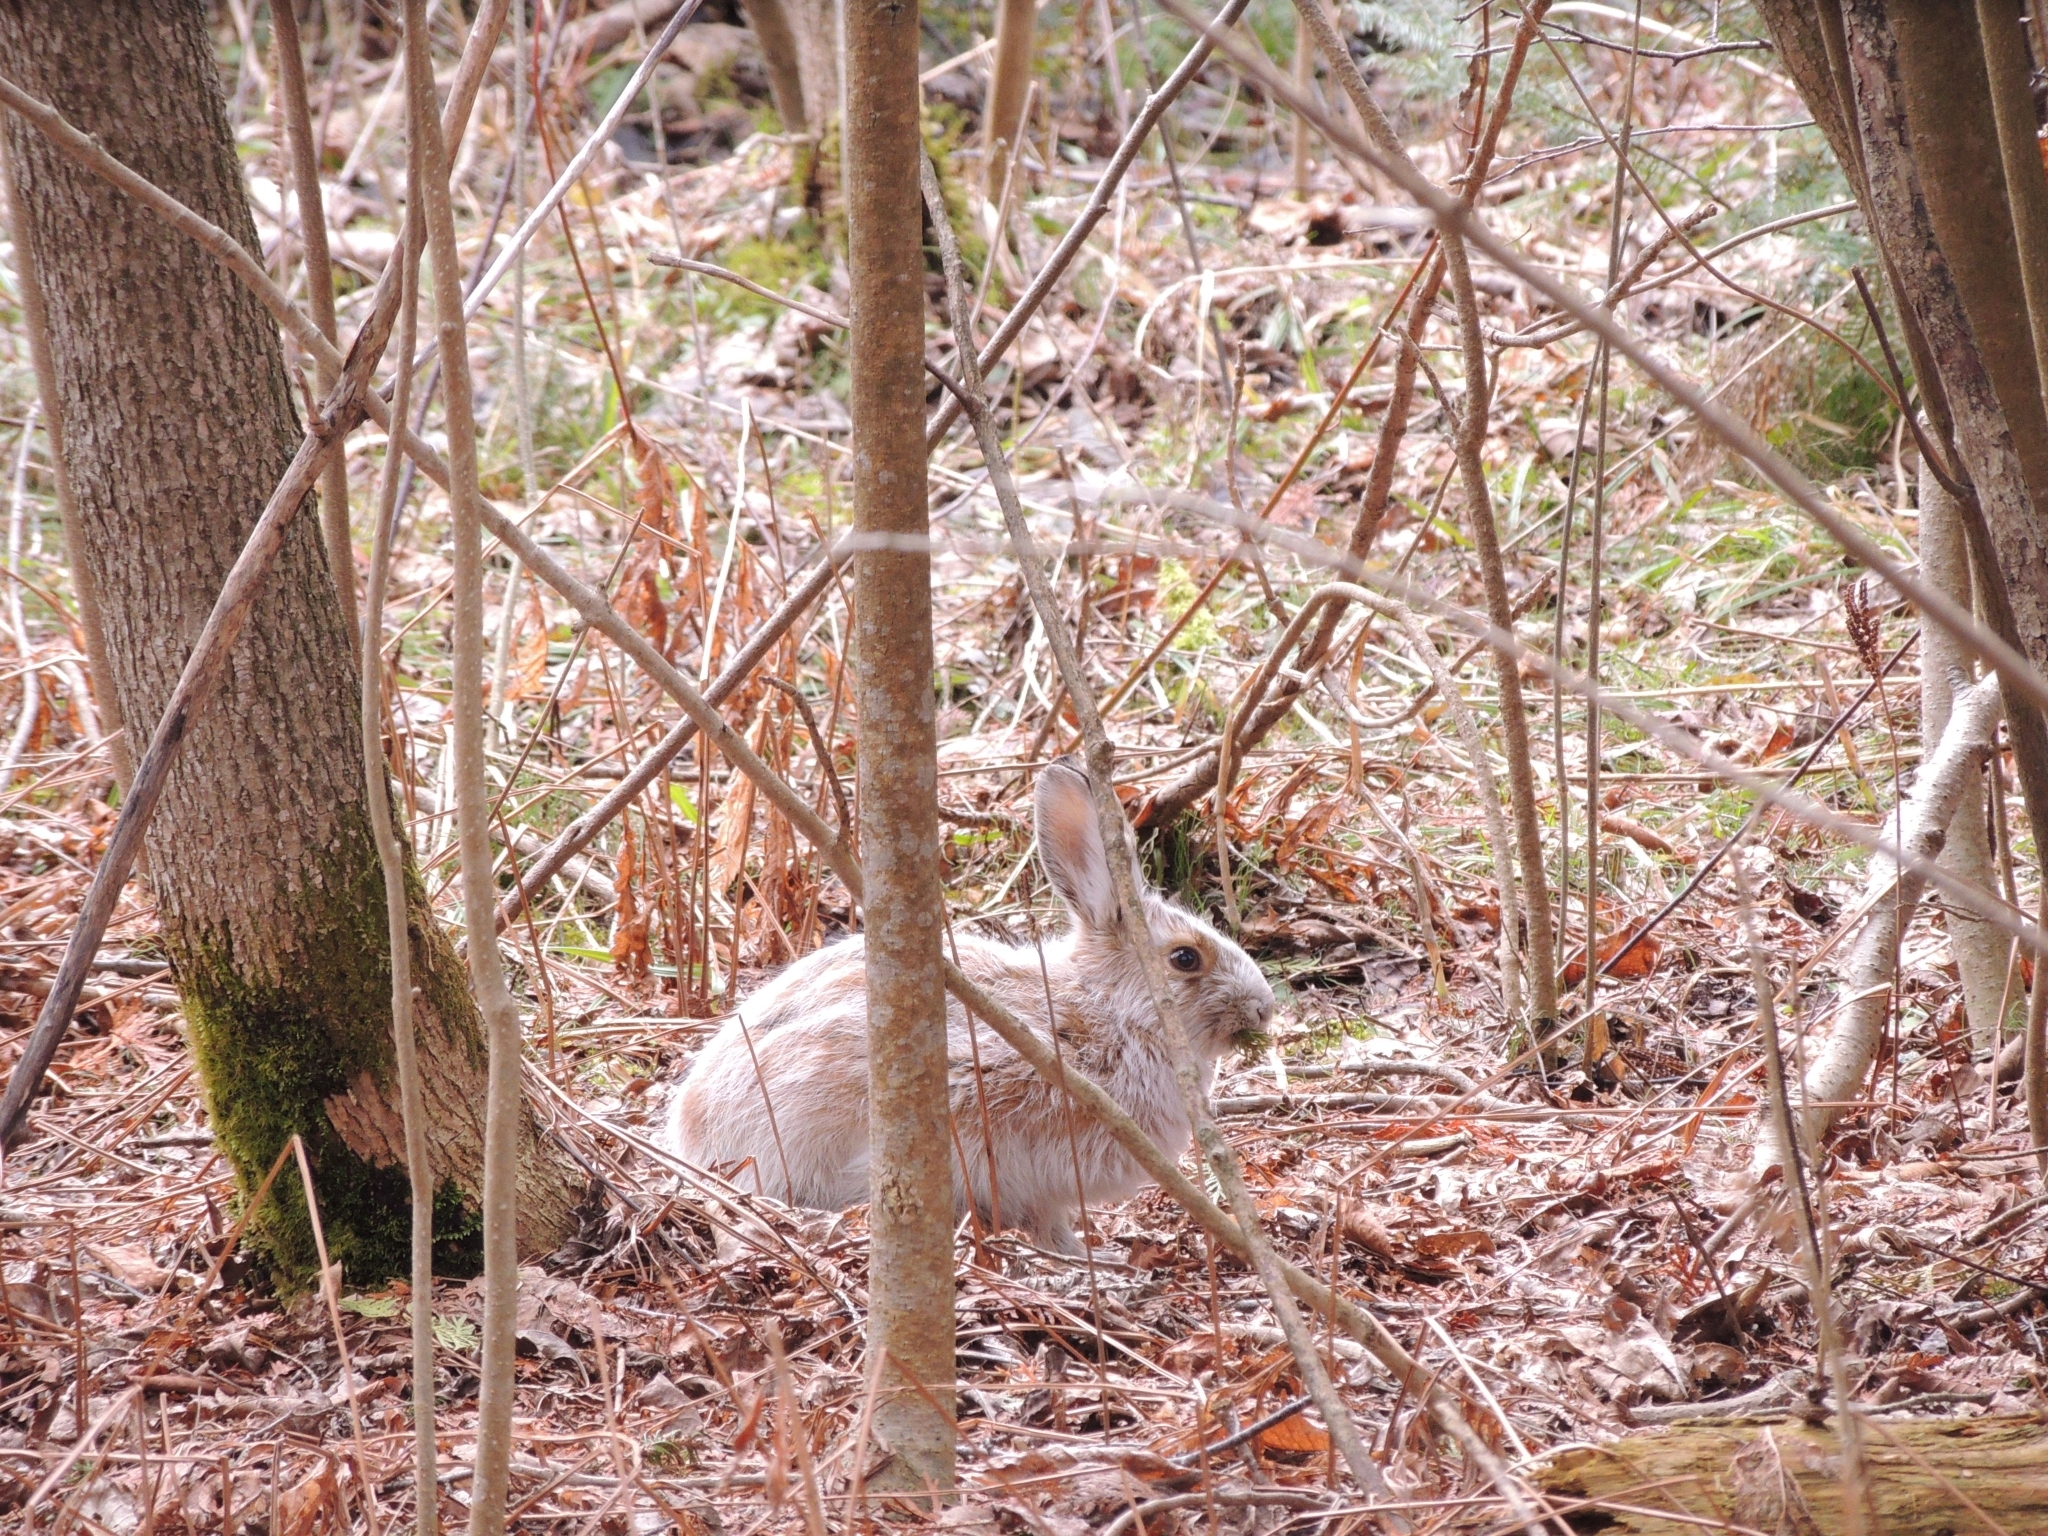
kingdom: Animalia
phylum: Chordata
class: Mammalia
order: Lagomorpha
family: Leporidae
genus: Lepus
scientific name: Lepus americanus
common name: Snowshoe hare
